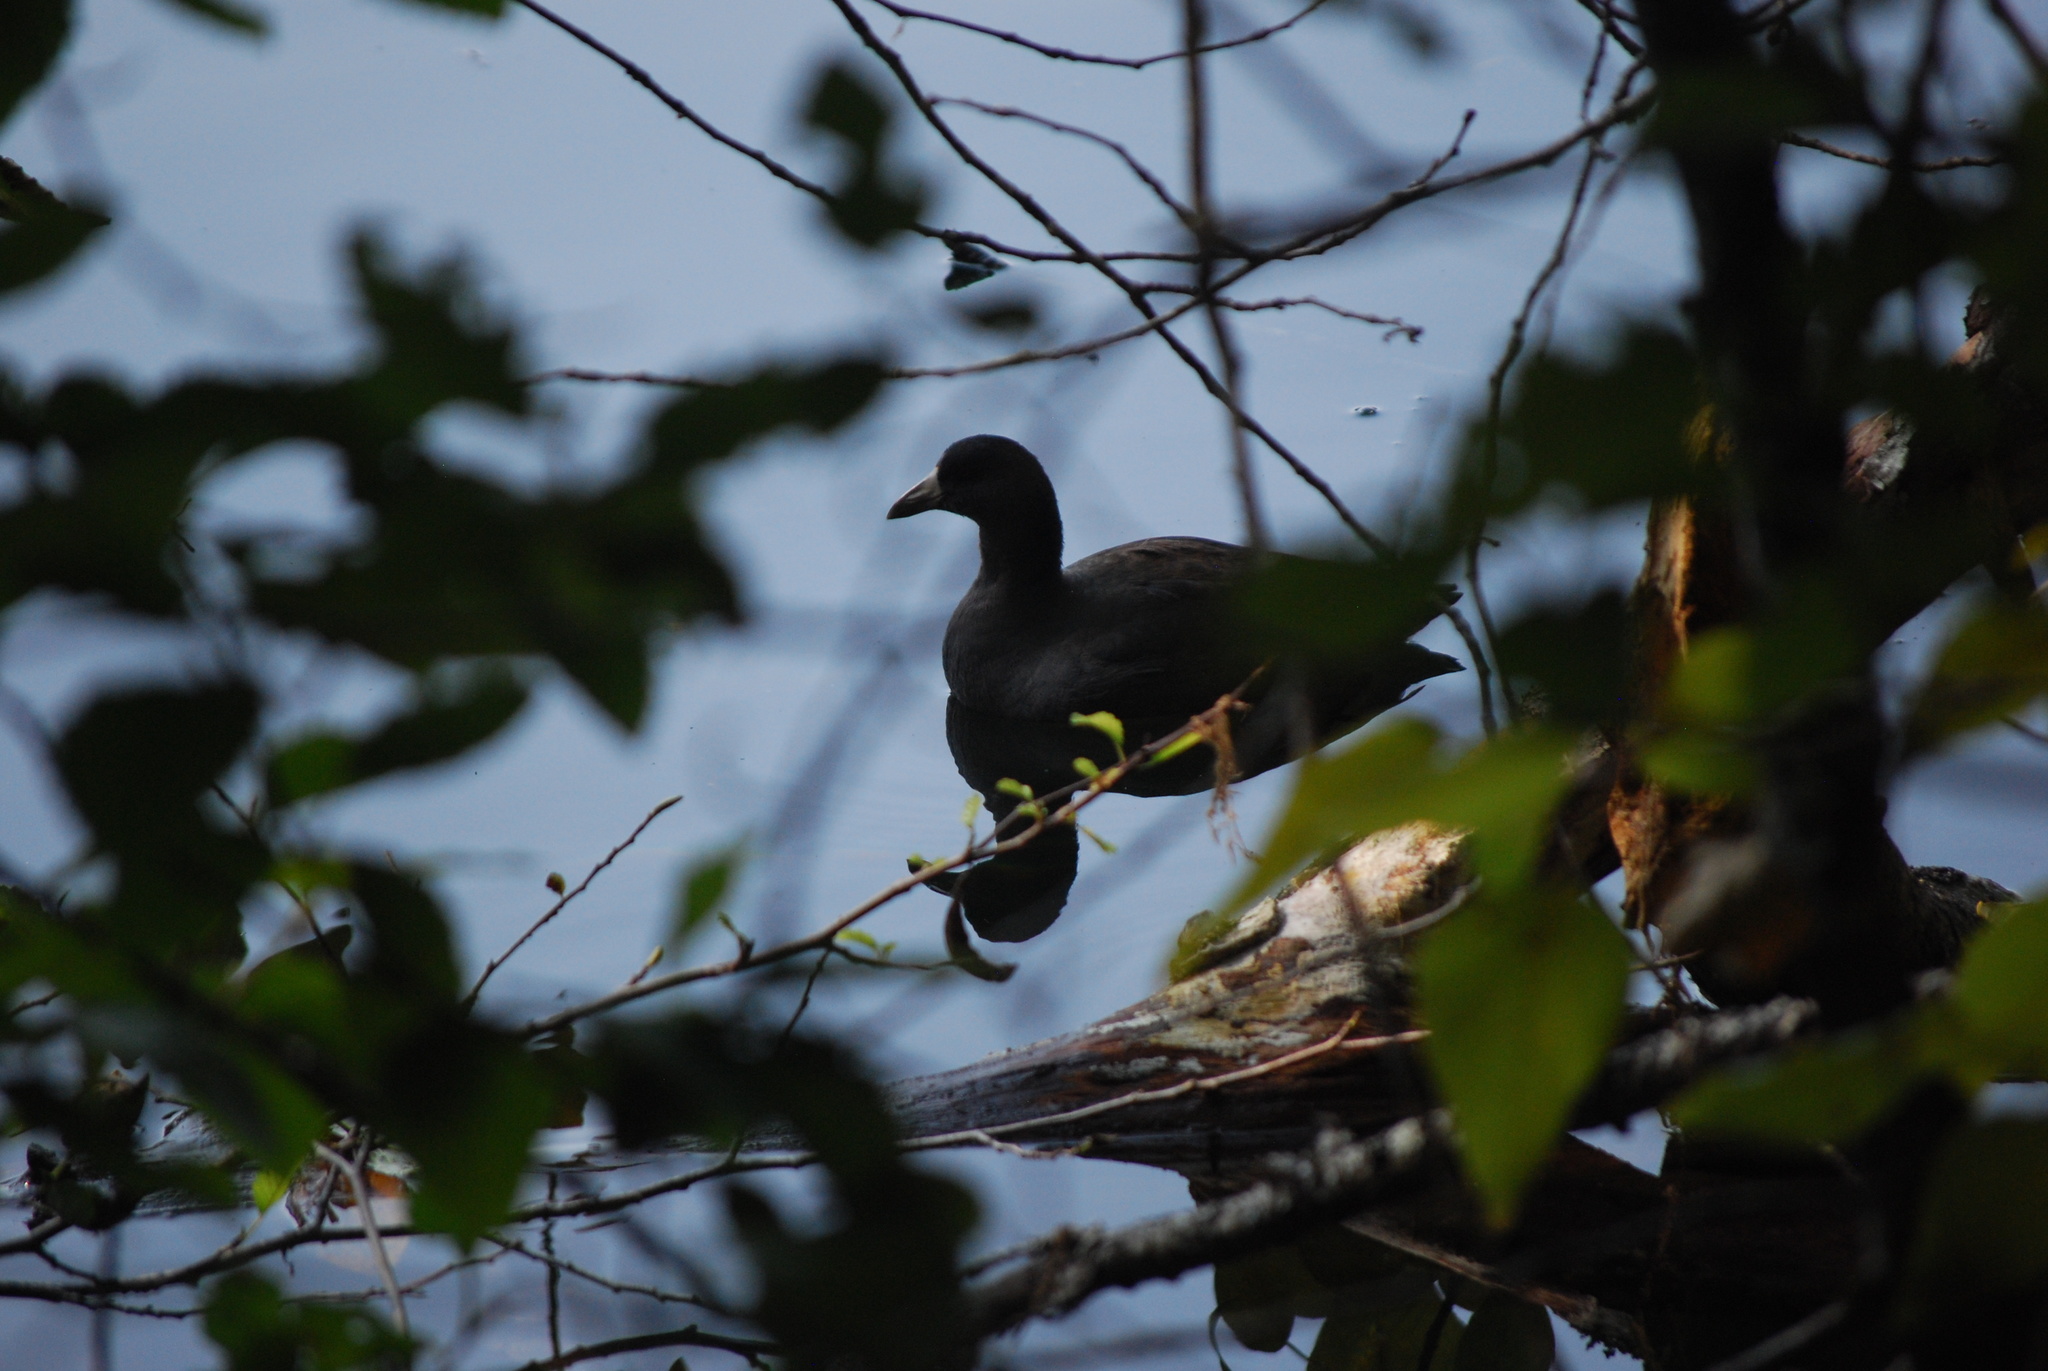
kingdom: Animalia
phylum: Chordata
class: Aves
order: Gruiformes
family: Rallidae
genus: Fulica
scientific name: Fulica americana
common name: American coot
